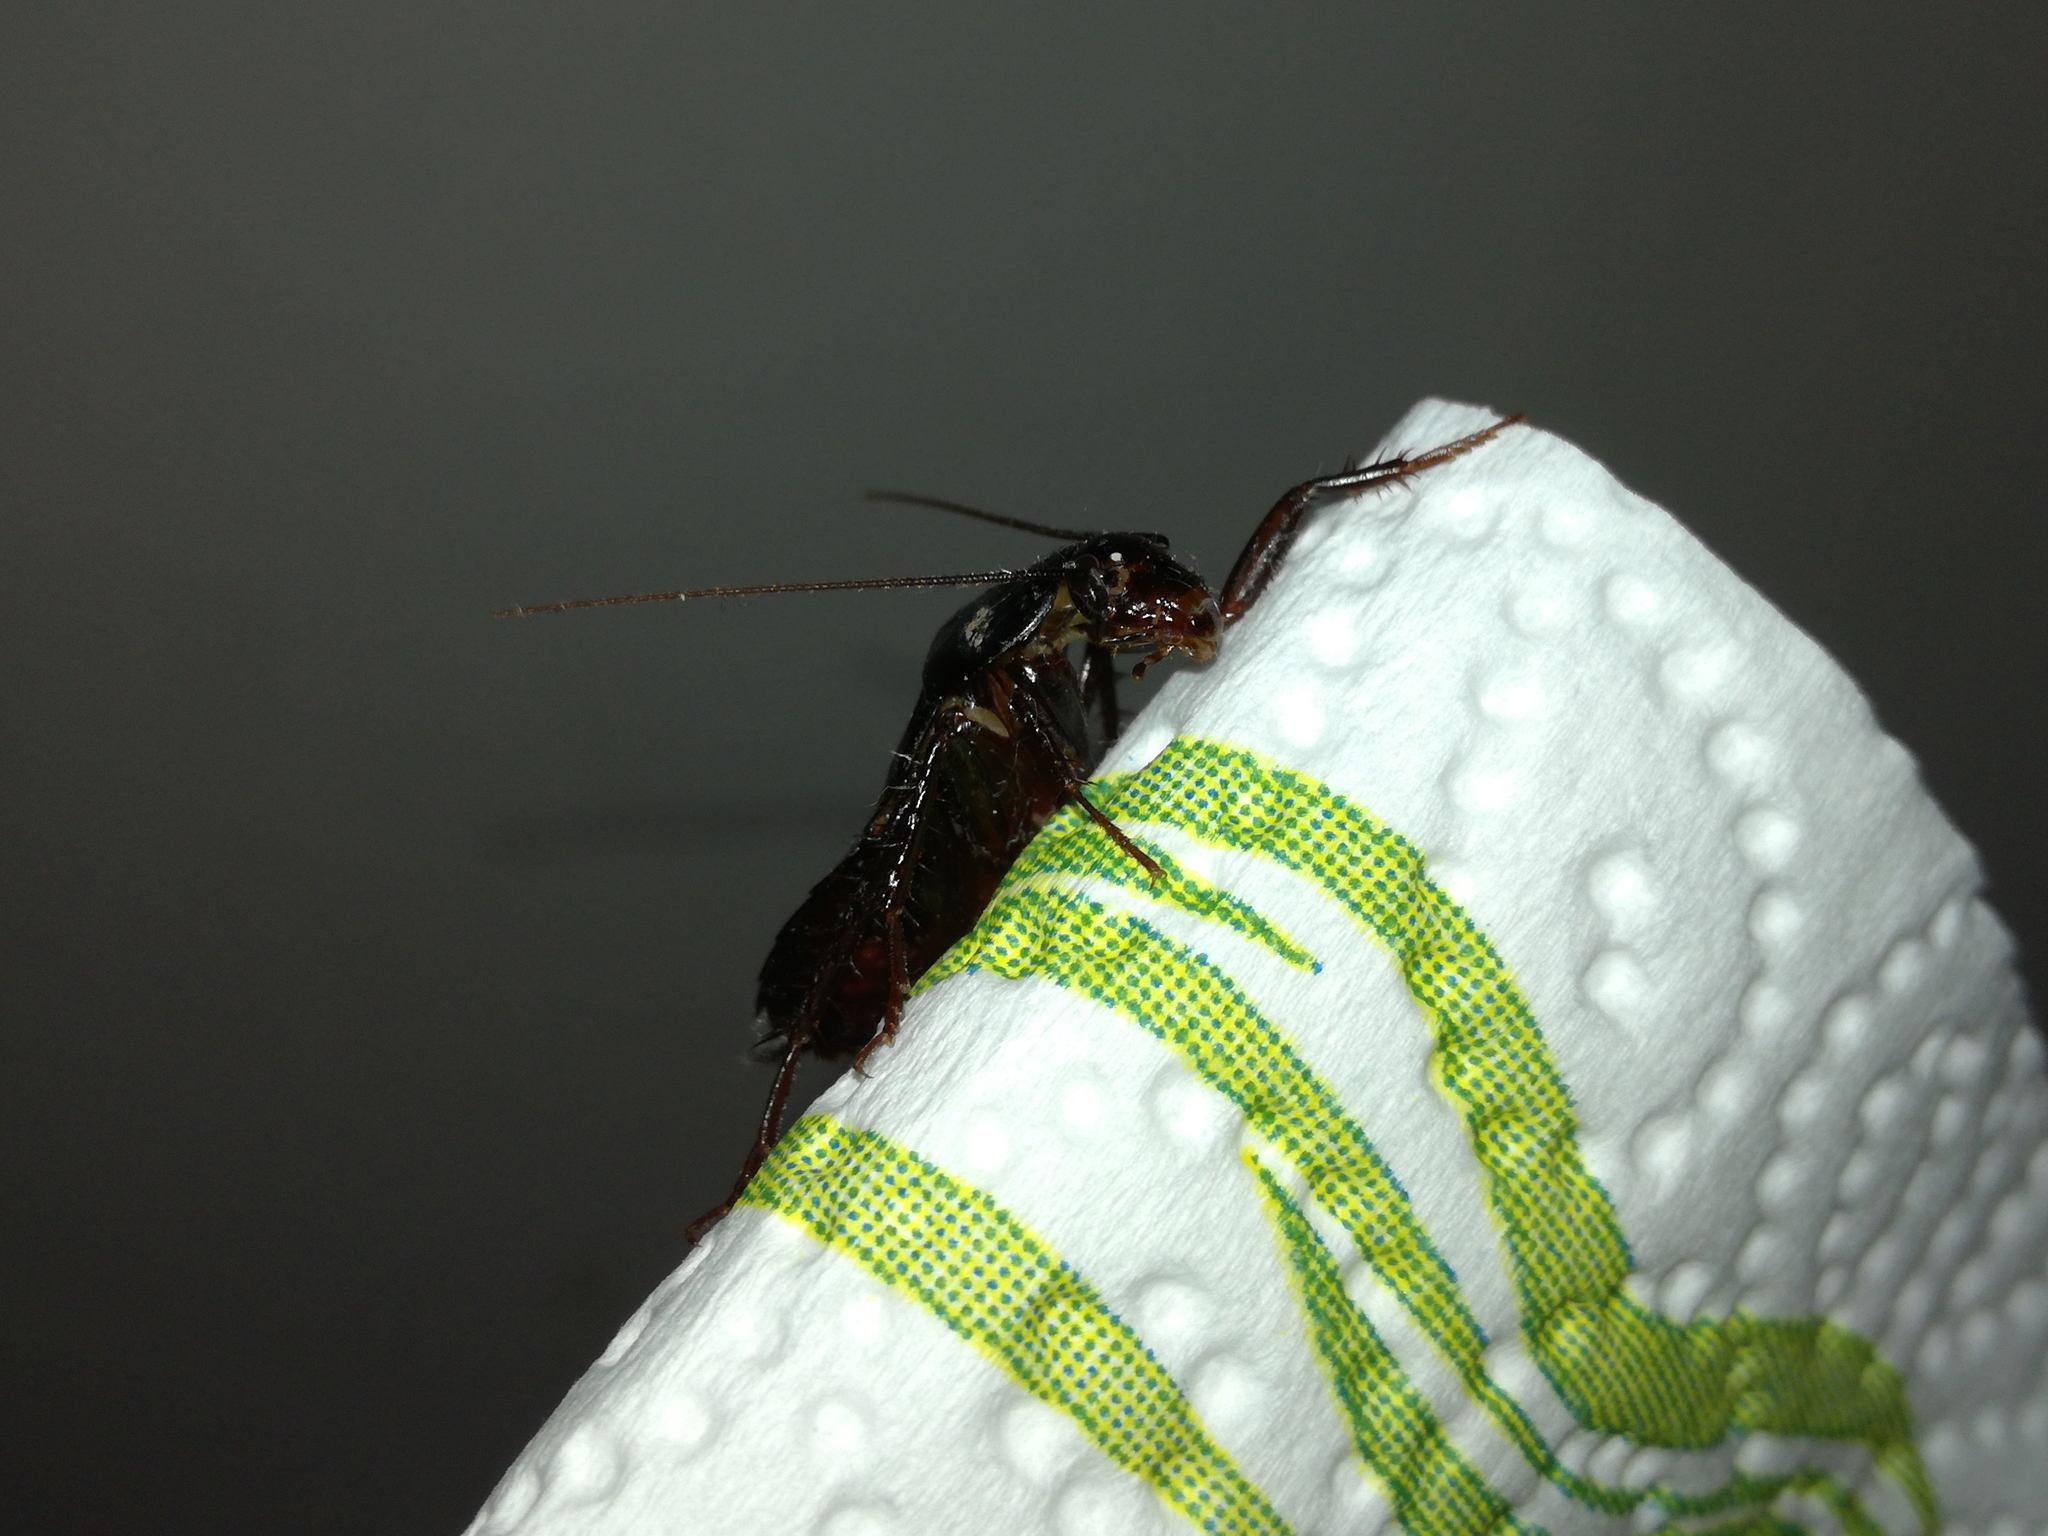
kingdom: Animalia
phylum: Arthropoda
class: Insecta
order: Blattodea
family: Blattidae
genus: Blatta
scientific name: Blatta orientalis
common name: Oriental cockroach
